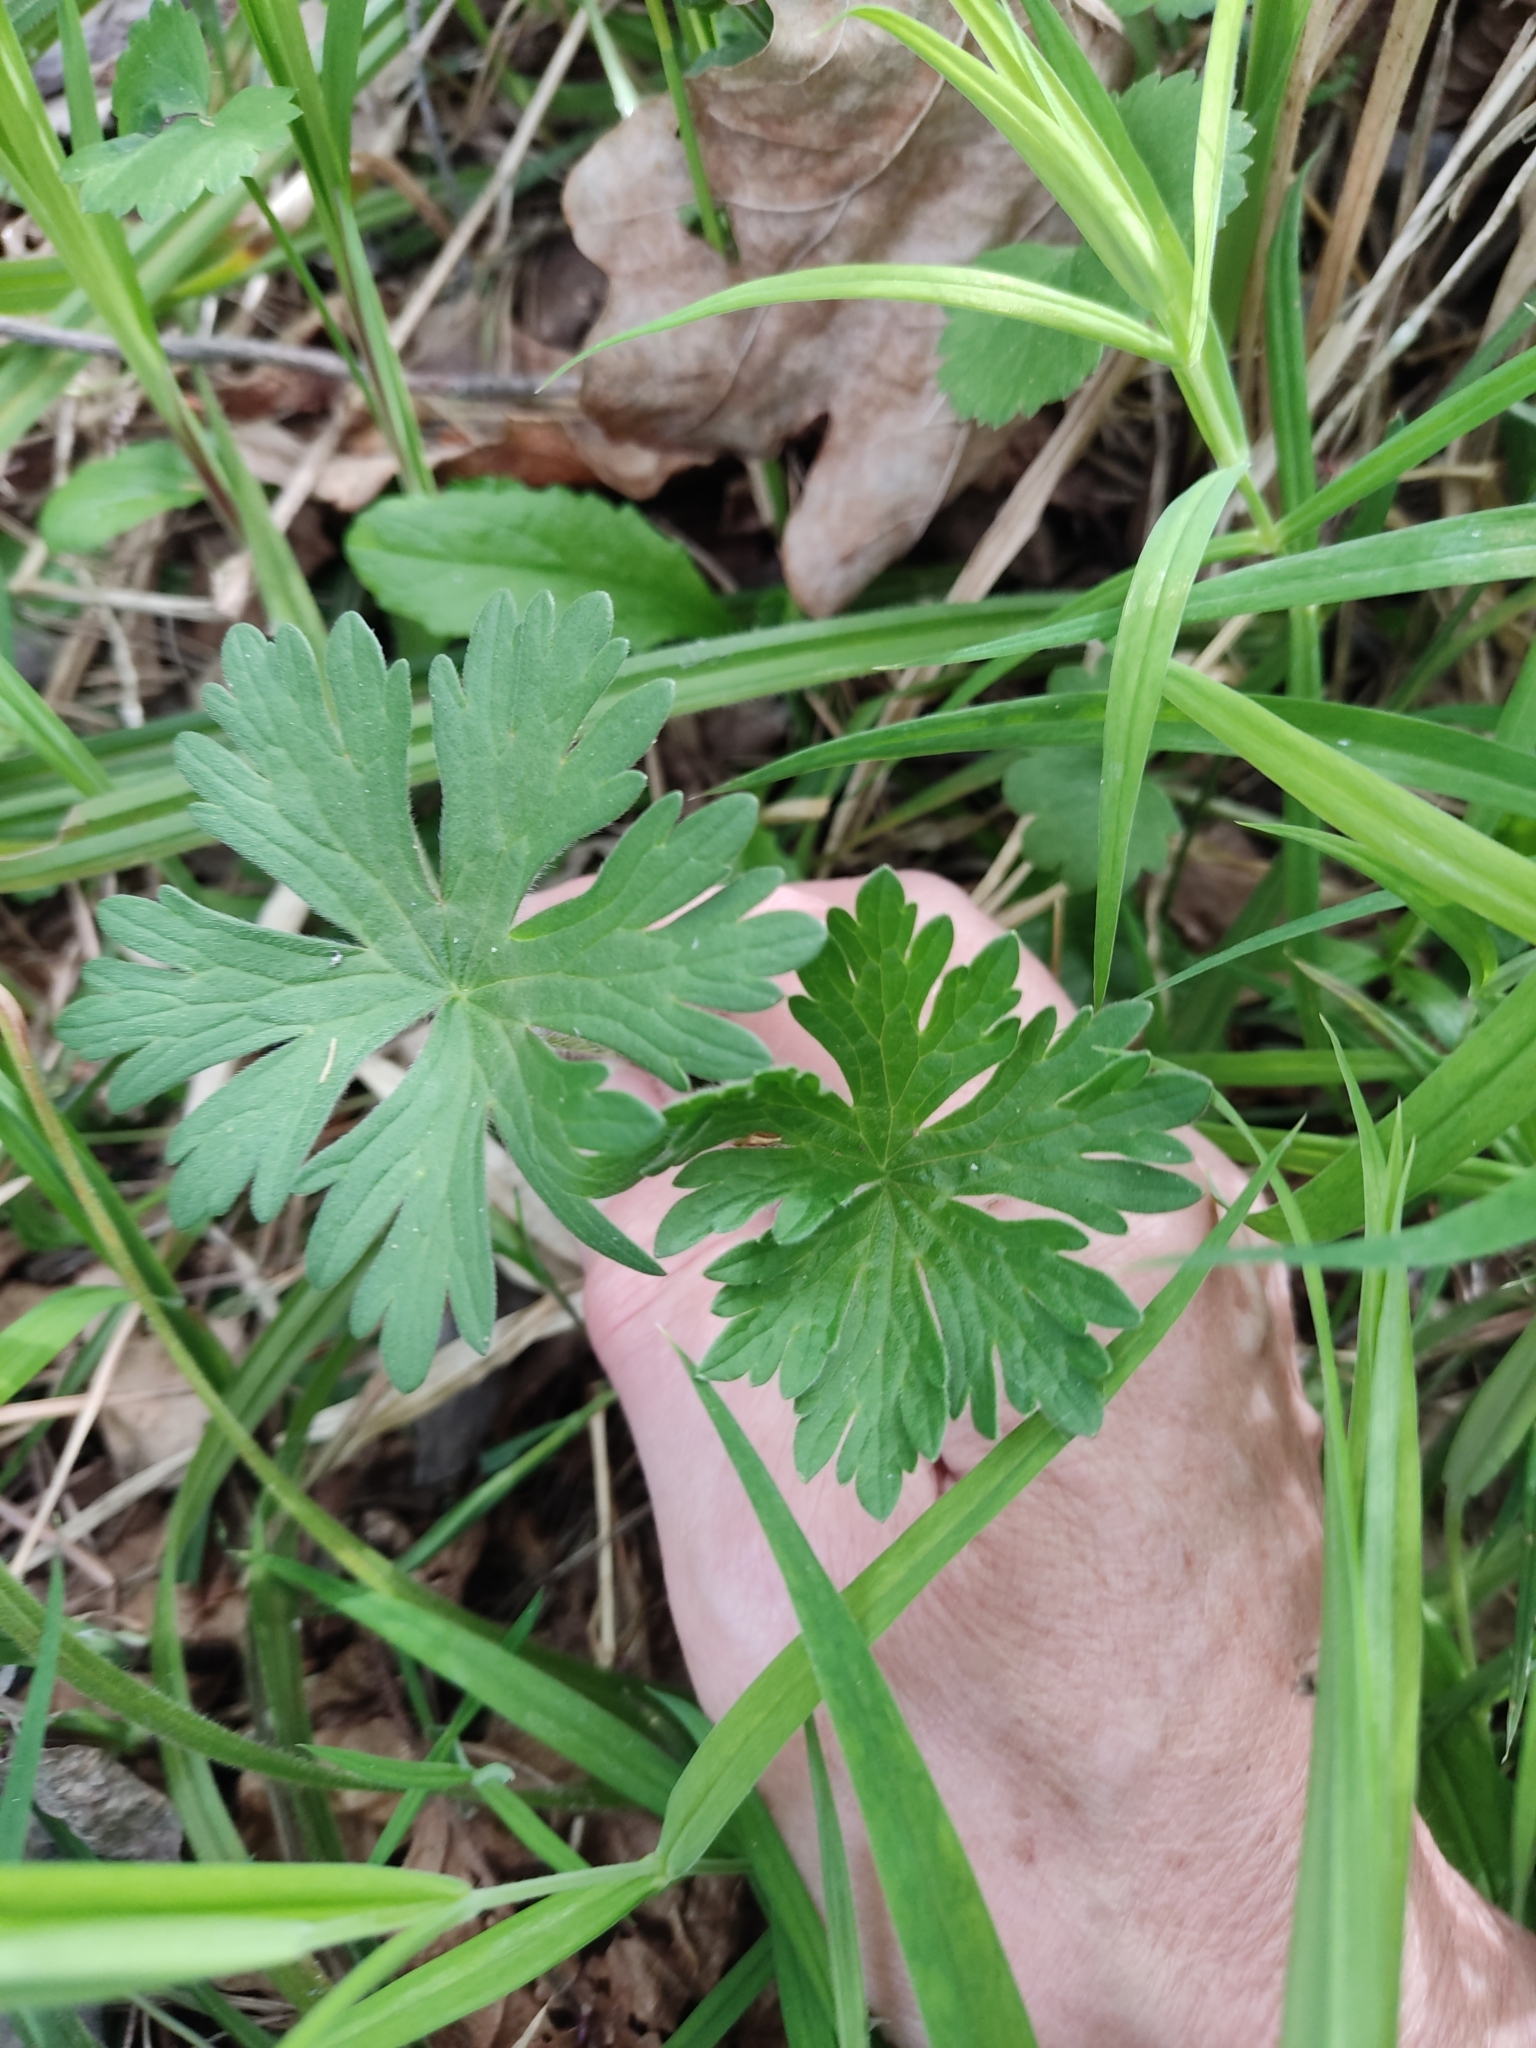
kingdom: Plantae
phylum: Tracheophyta
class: Magnoliopsida
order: Geraniales
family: Geraniaceae
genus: Geranium
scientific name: Geranium sylvaticum
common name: Wood crane's-bill
